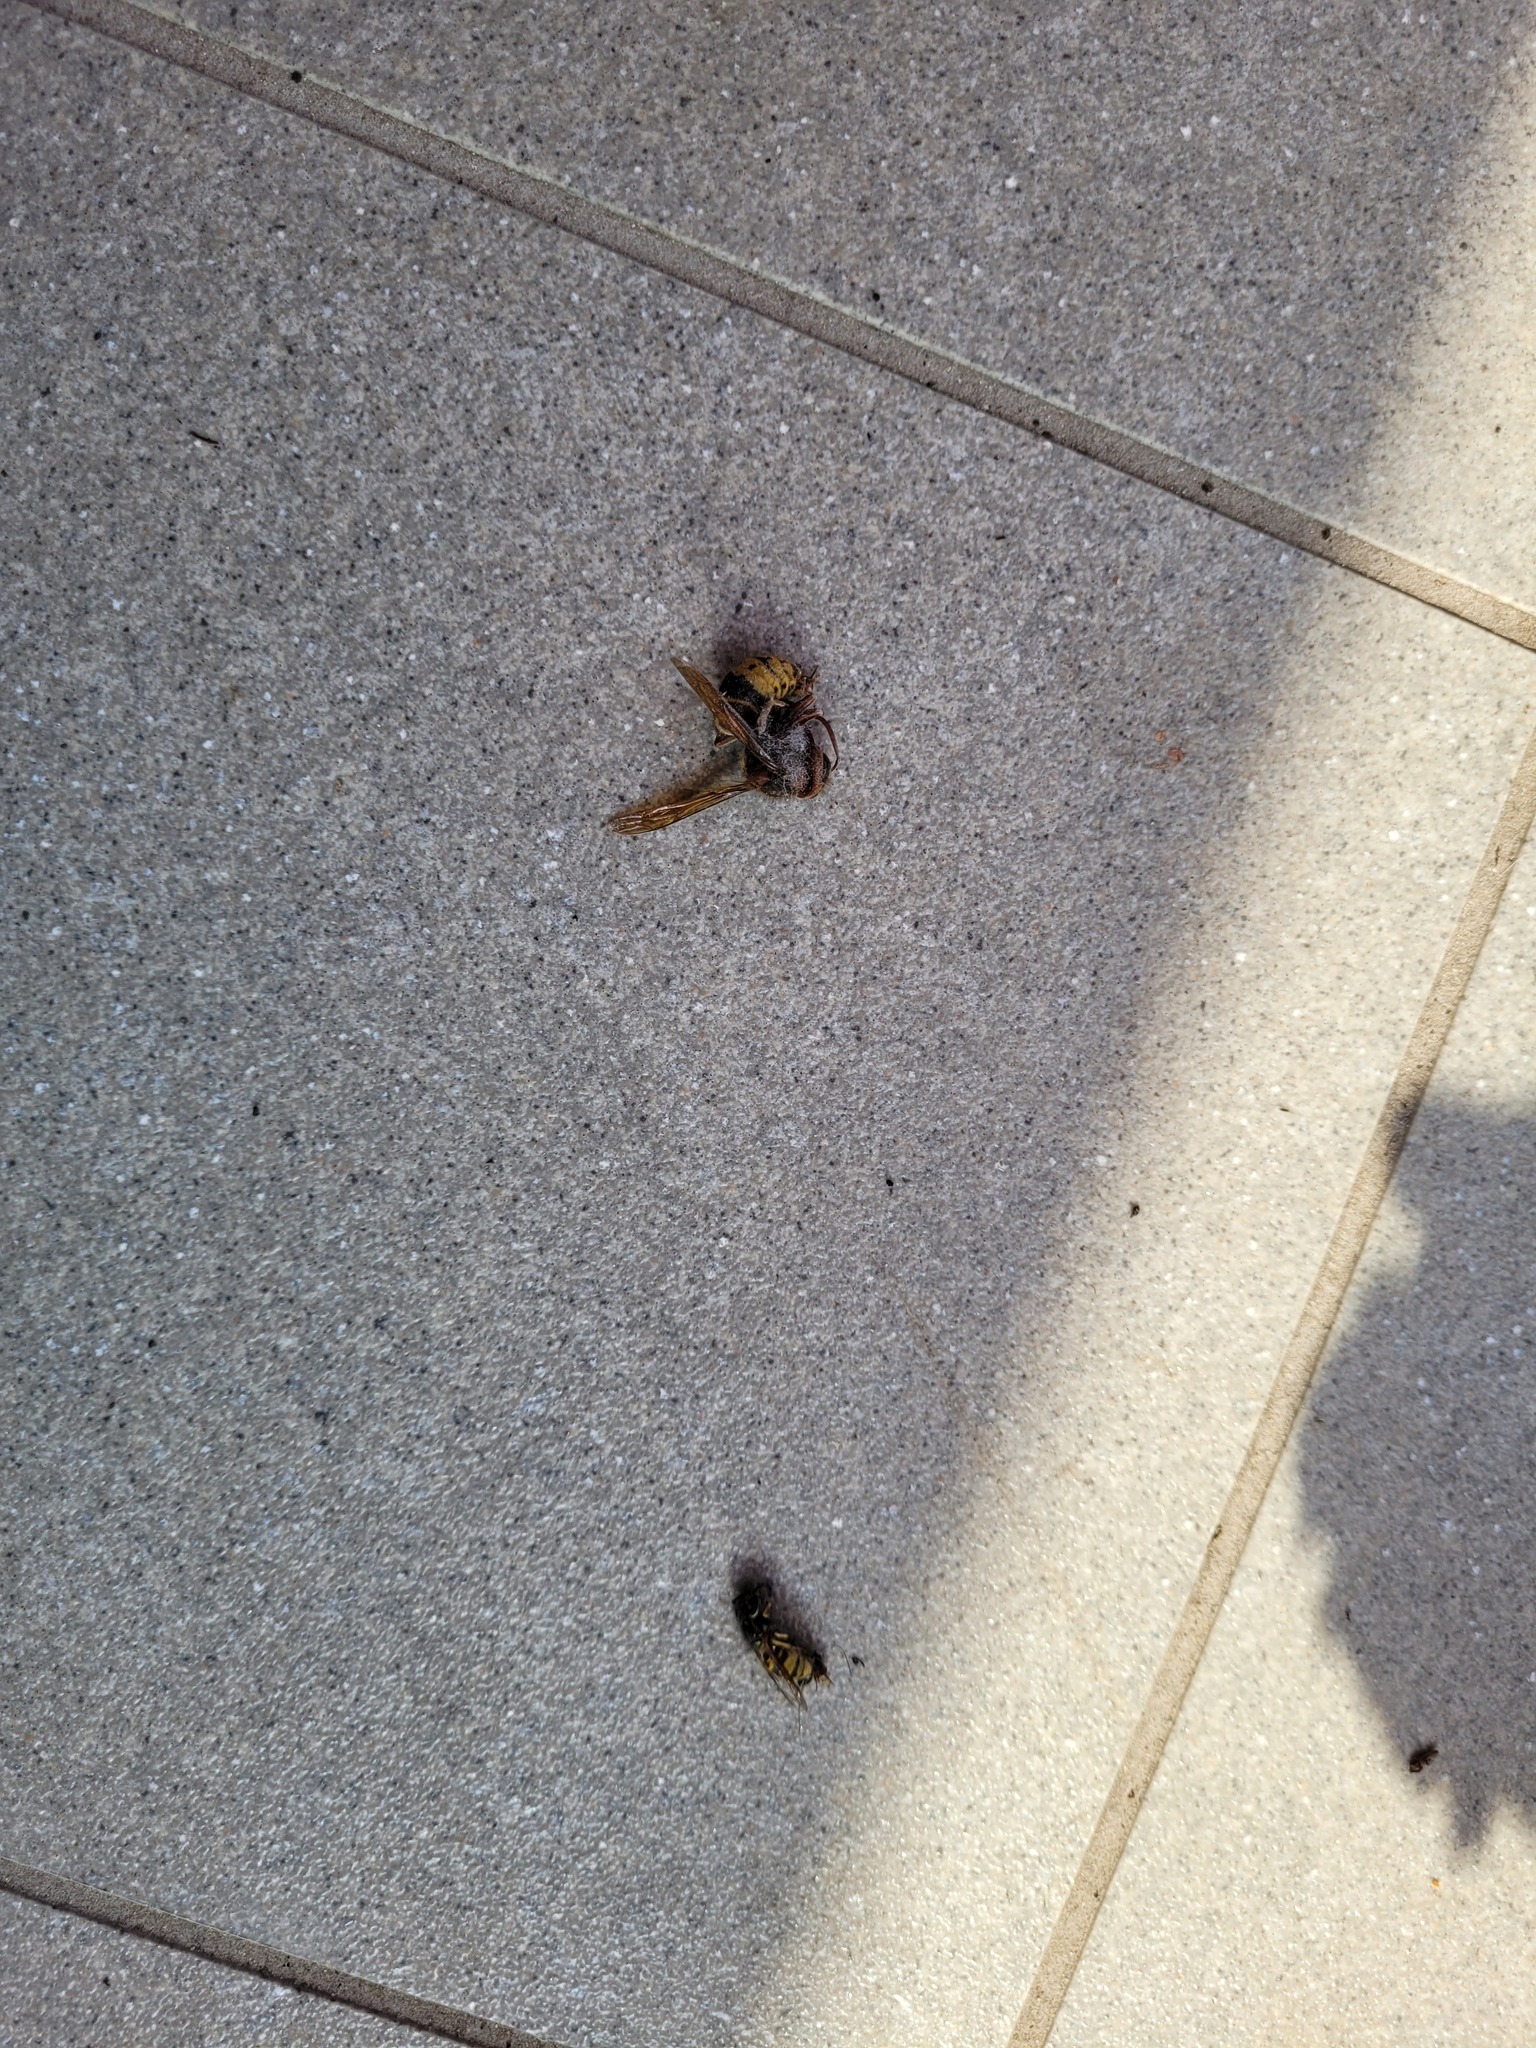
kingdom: Animalia
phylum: Arthropoda
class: Insecta
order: Hymenoptera
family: Vespidae
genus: Vespa
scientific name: Vespa crabro
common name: Hornet
